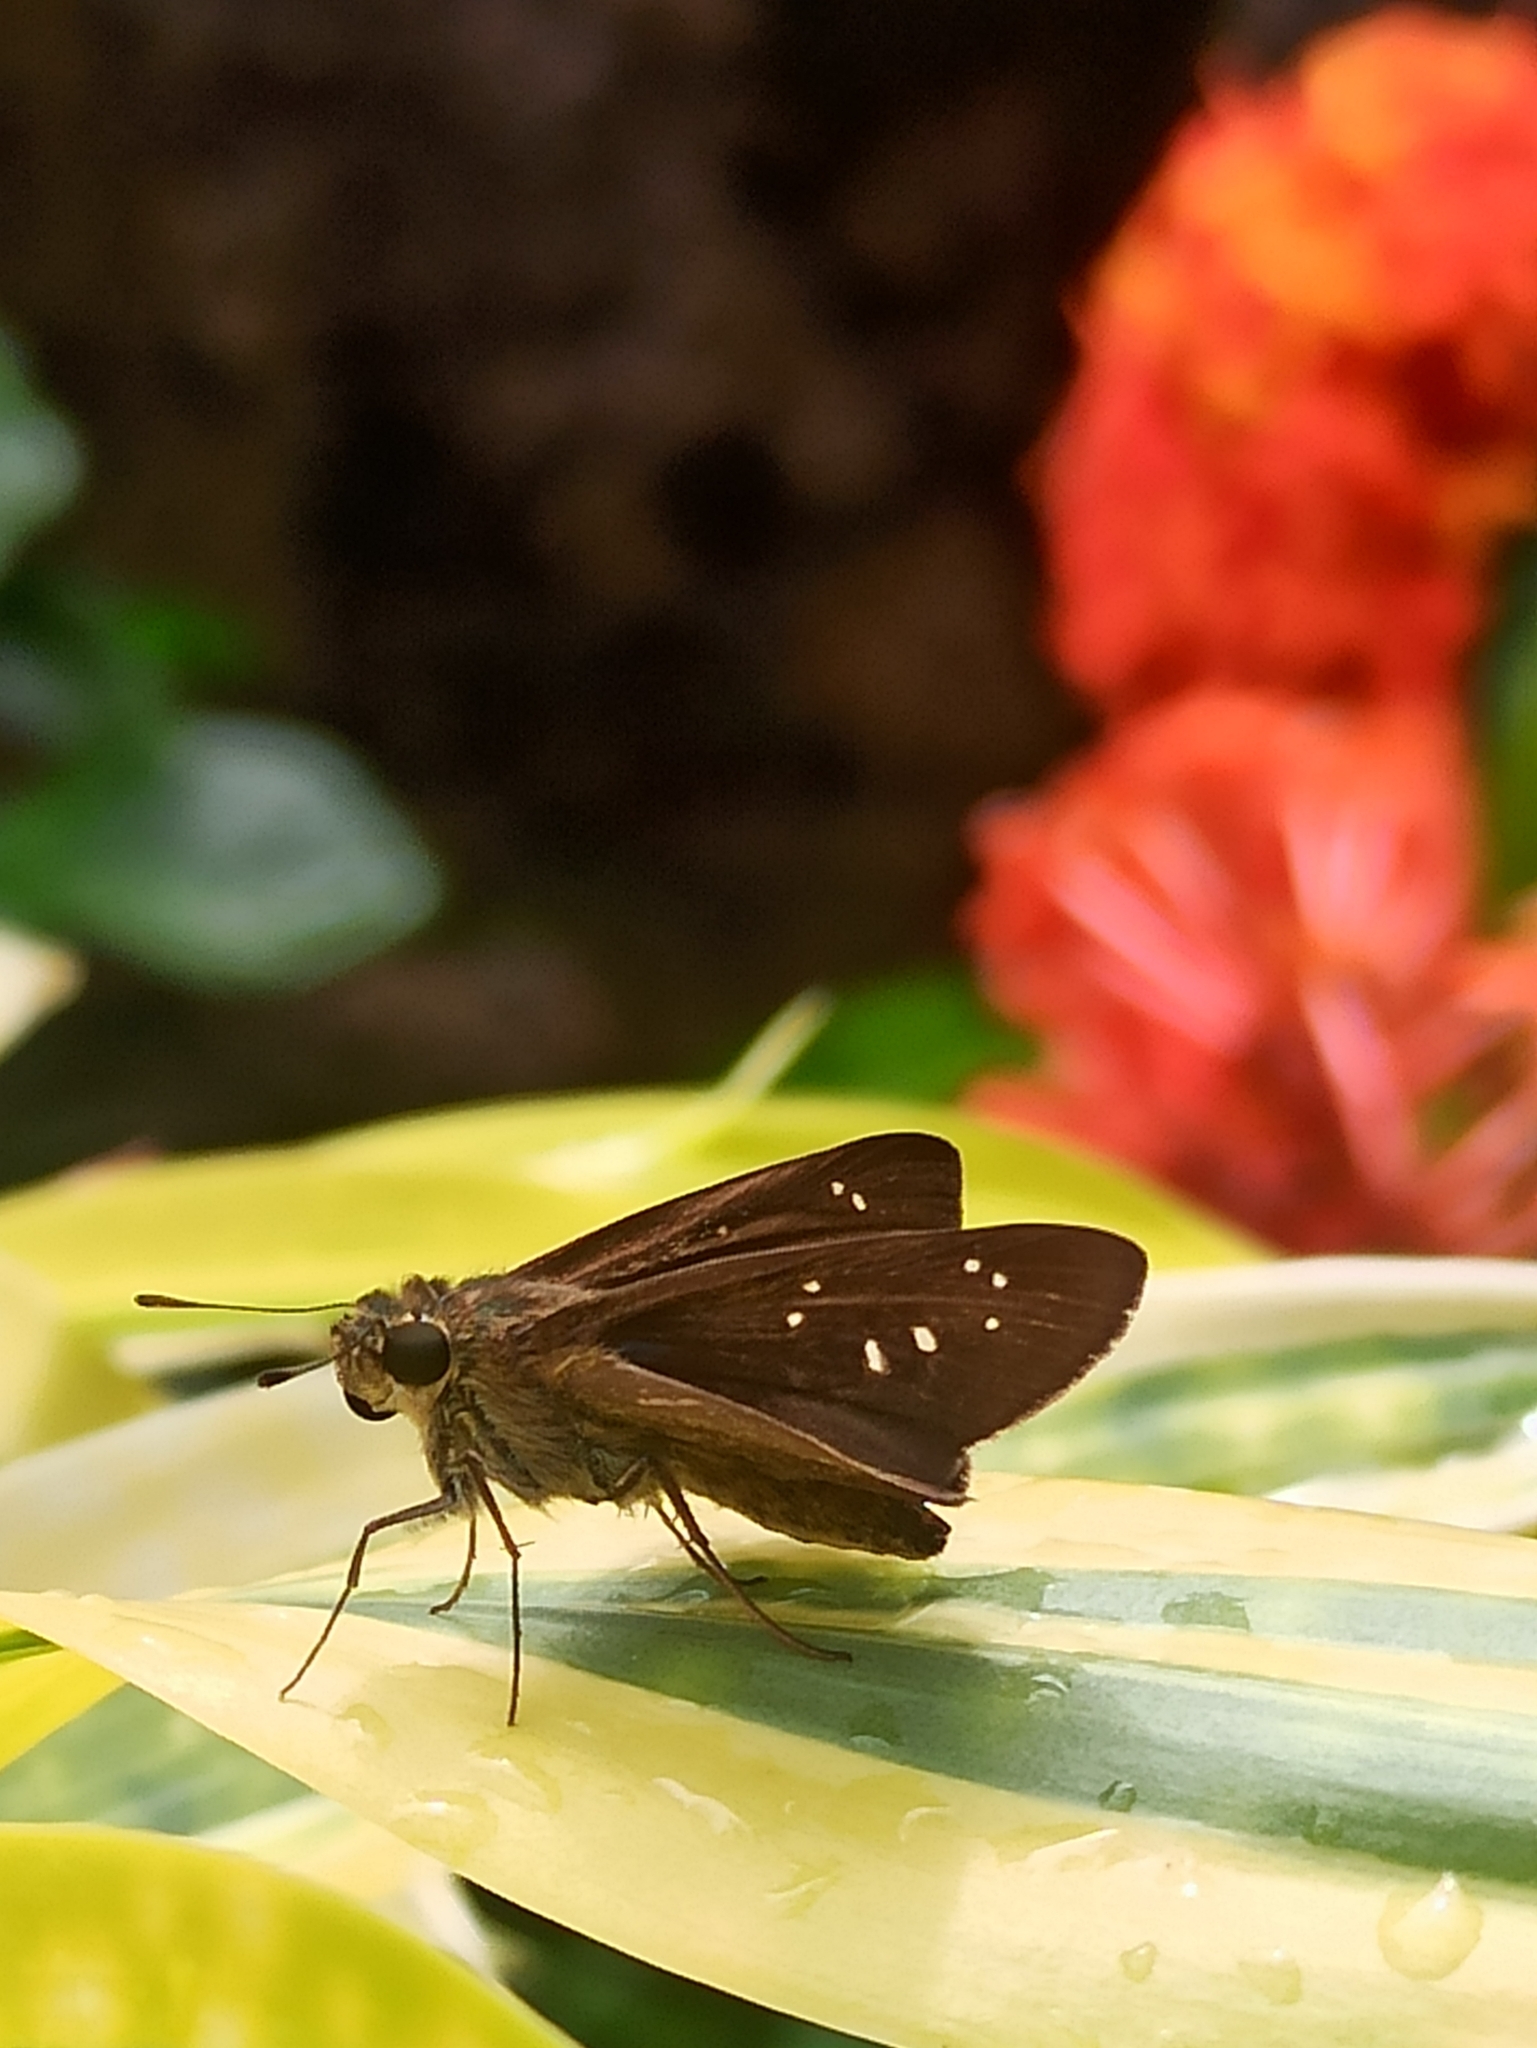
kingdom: Animalia
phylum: Arthropoda
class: Insecta
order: Lepidoptera
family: Hesperiidae
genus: Pelopidas
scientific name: Pelopidas agna
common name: Little branded swift
